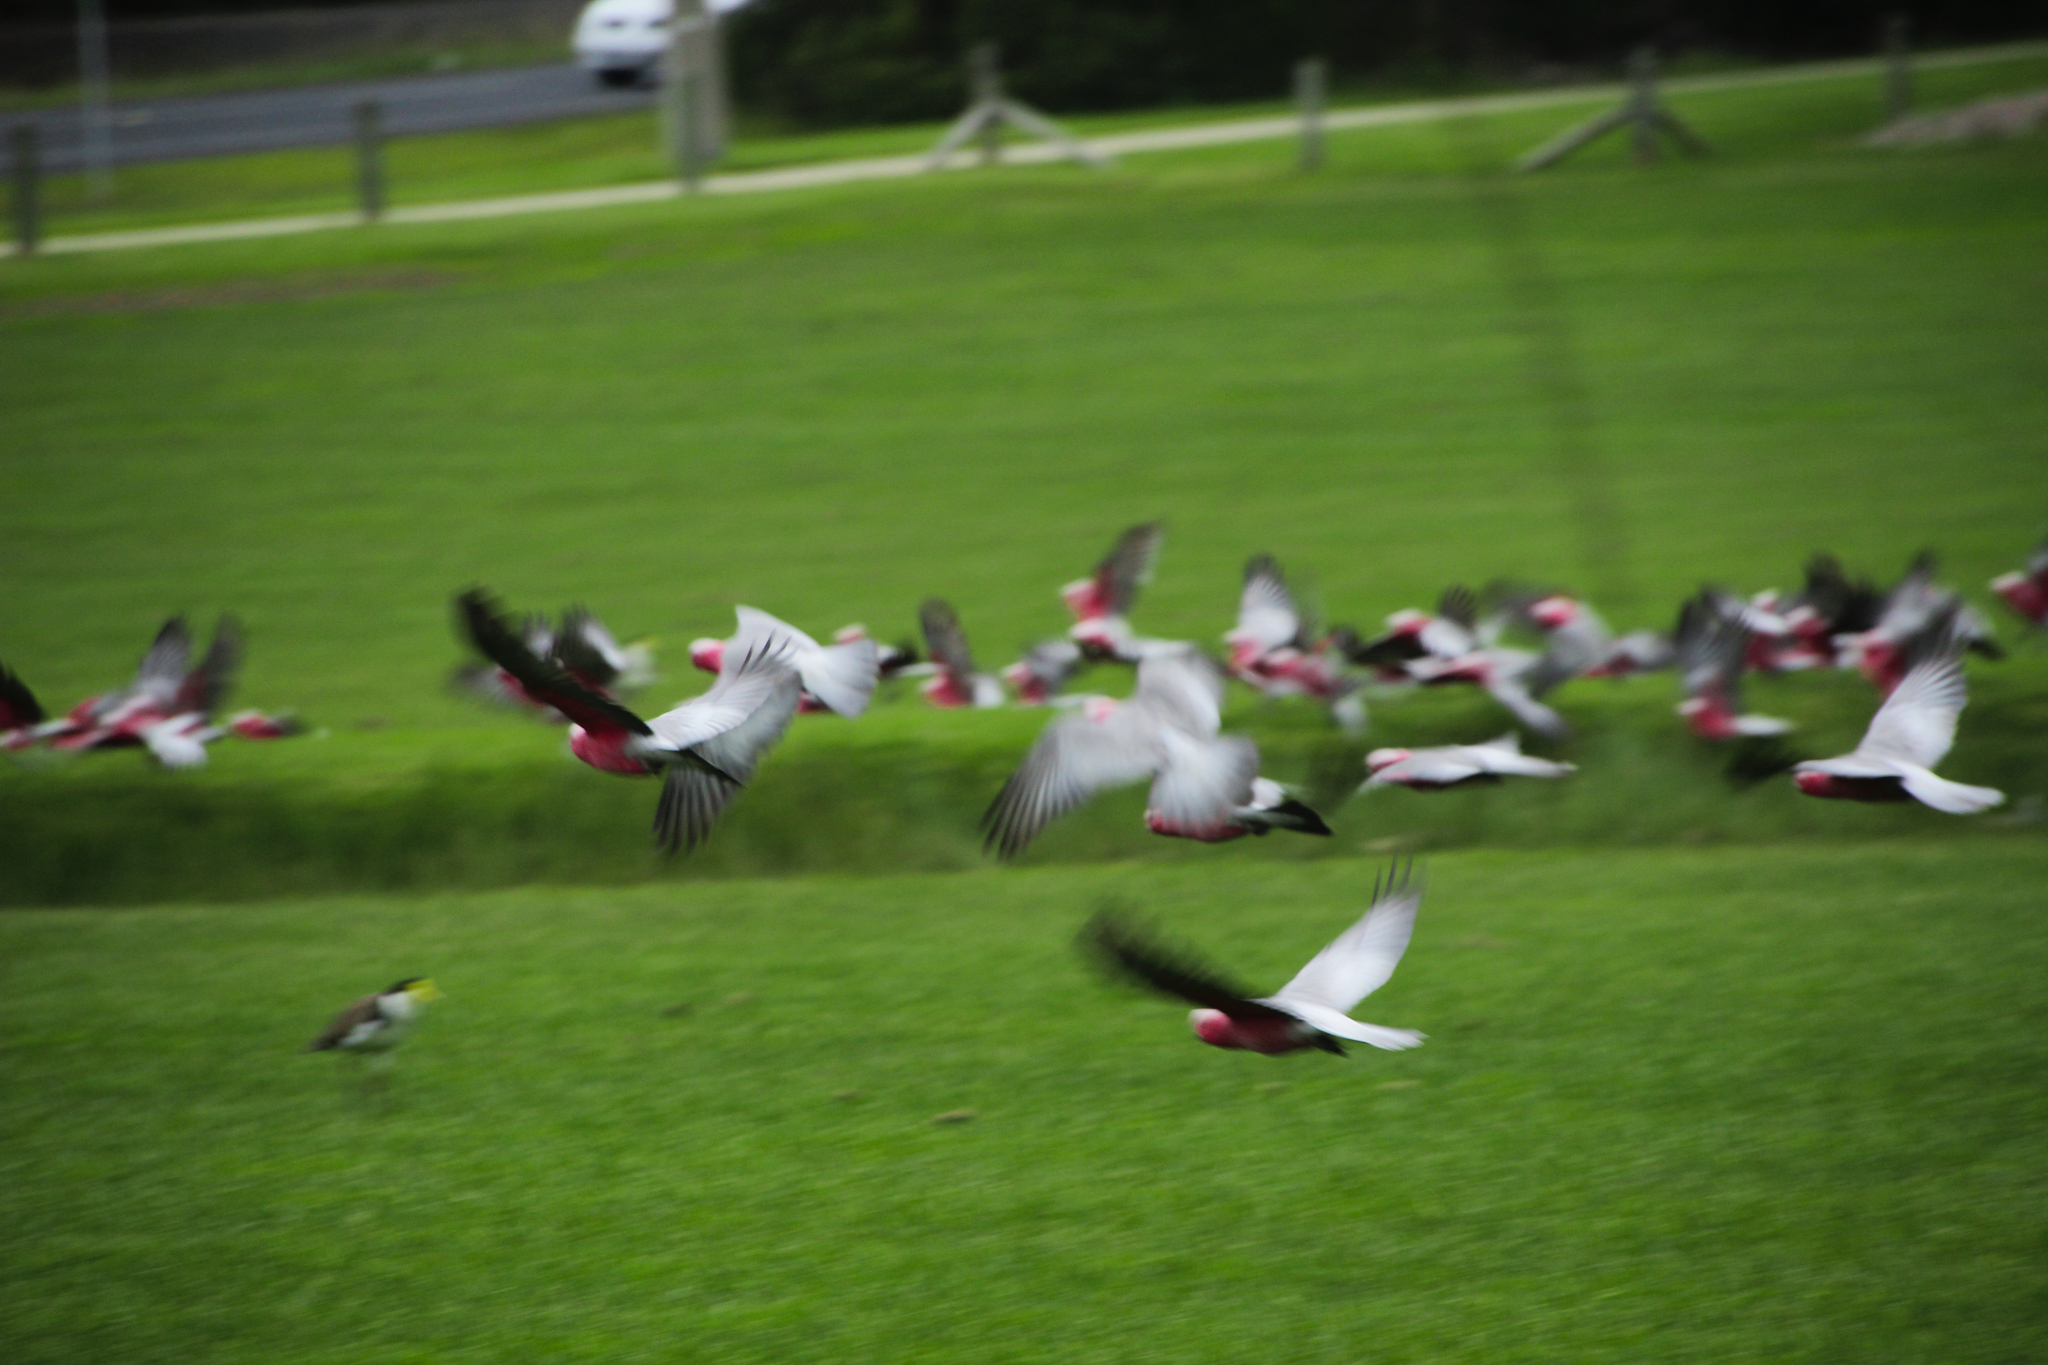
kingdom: Animalia
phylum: Chordata
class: Aves
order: Psittaciformes
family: Psittacidae
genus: Eolophus
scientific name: Eolophus roseicapilla
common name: Galah
